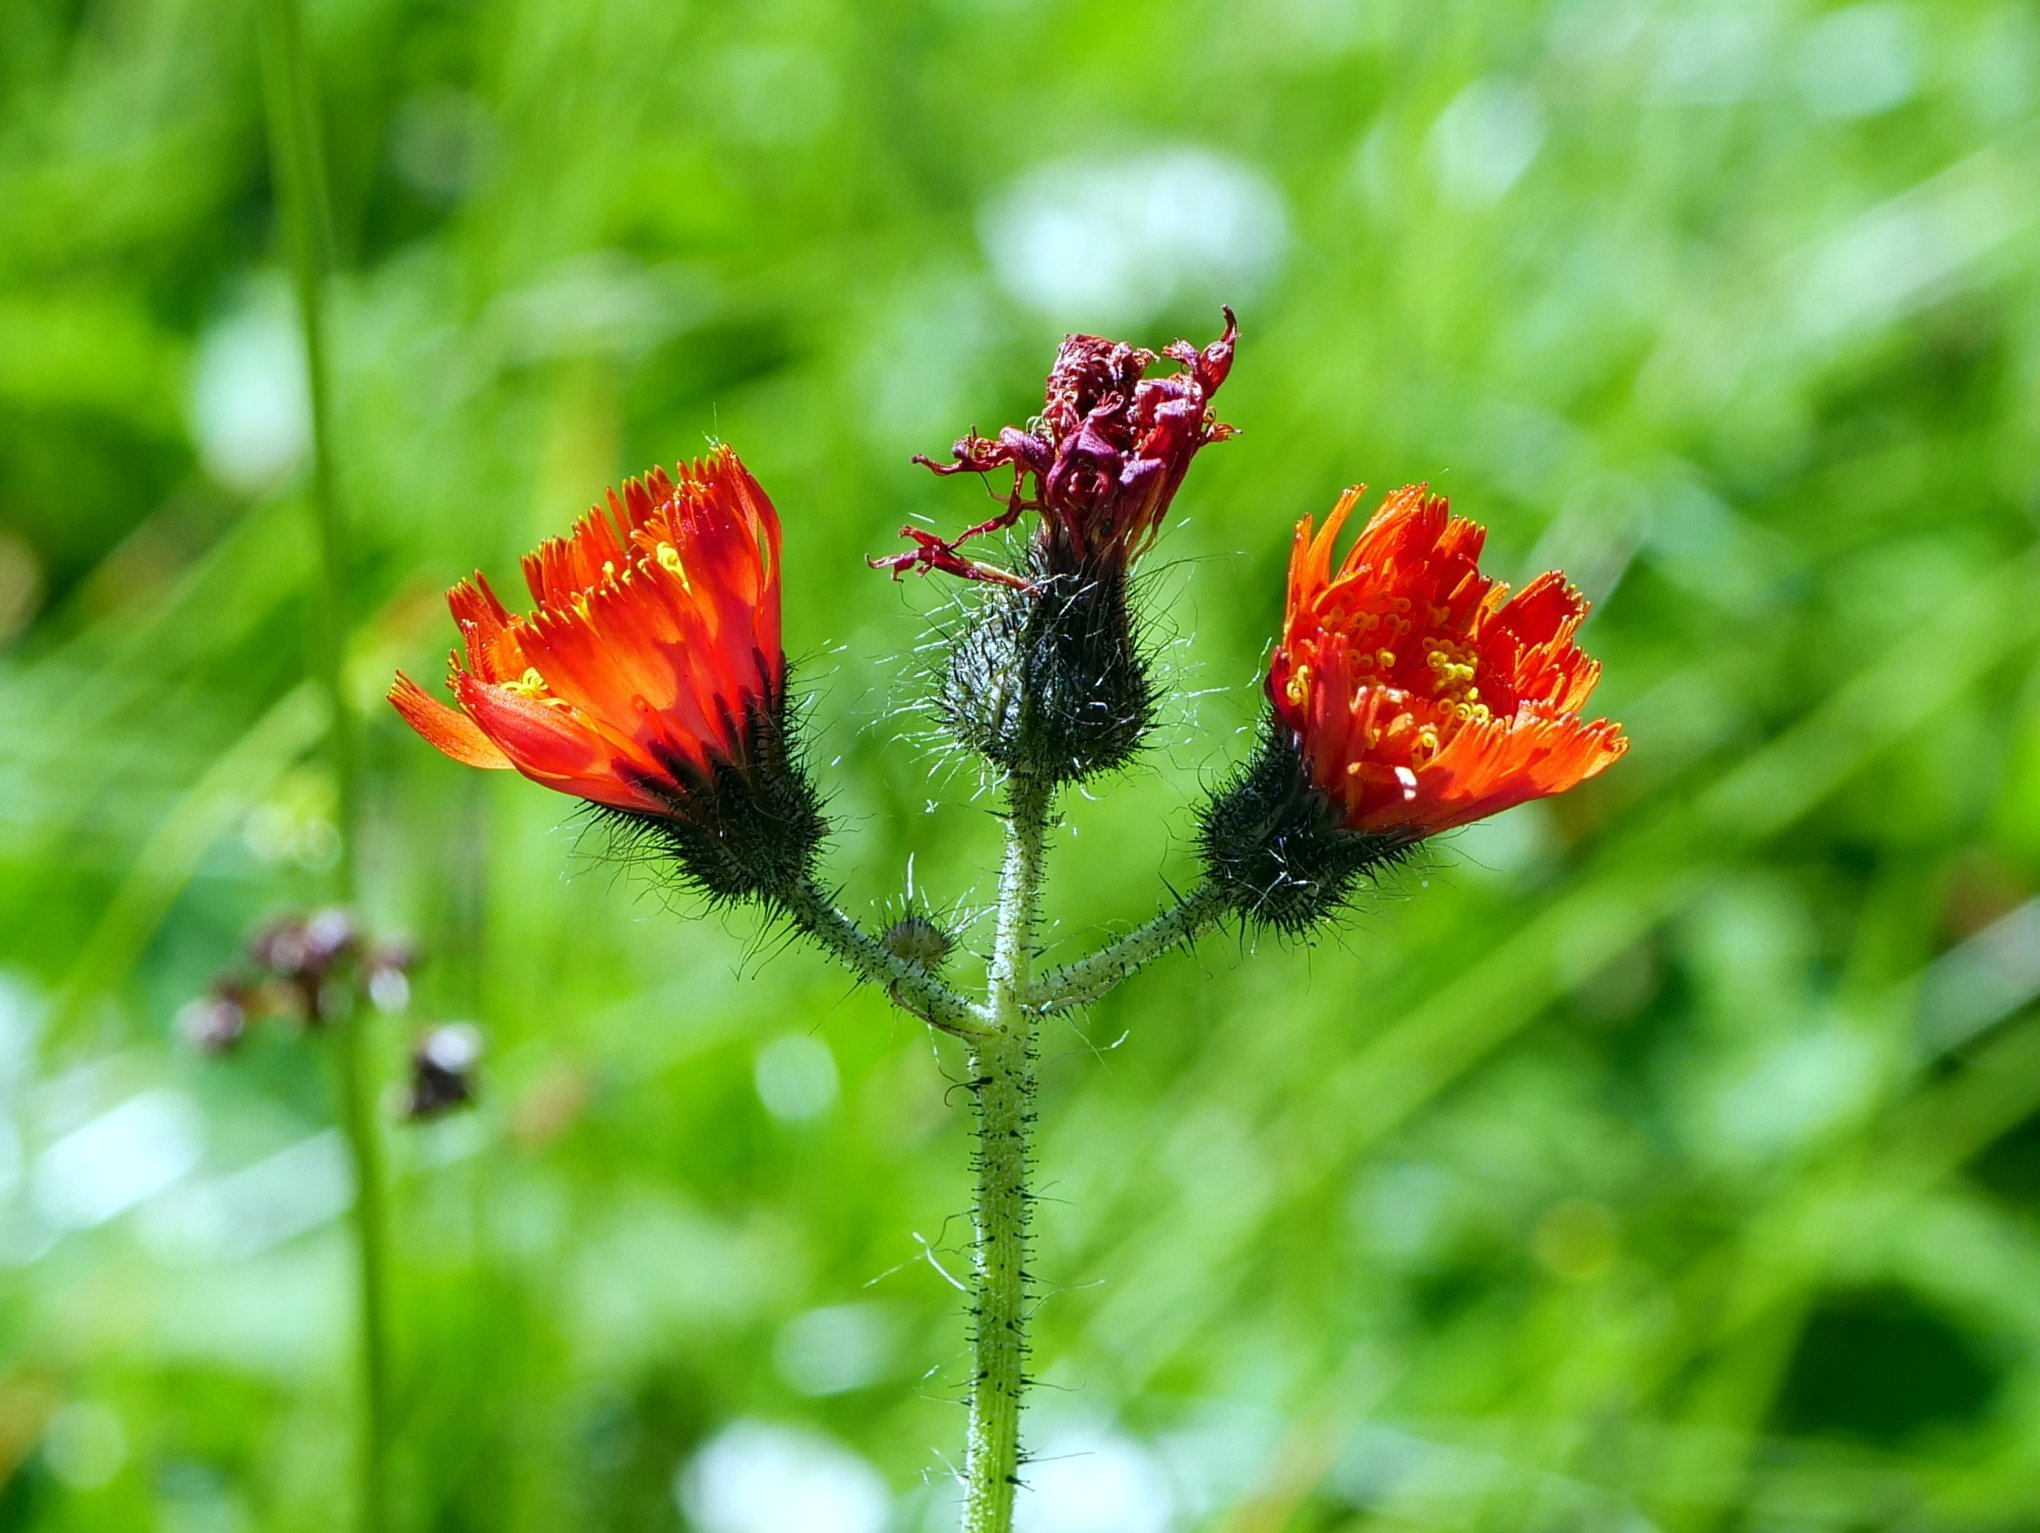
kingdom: Plantae
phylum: Tracheophyta
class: Magnoliopsida
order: Asterales
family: Asteraceae
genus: Pilosella
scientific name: Pilosella aurantiaca
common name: Fox-and-cubs
